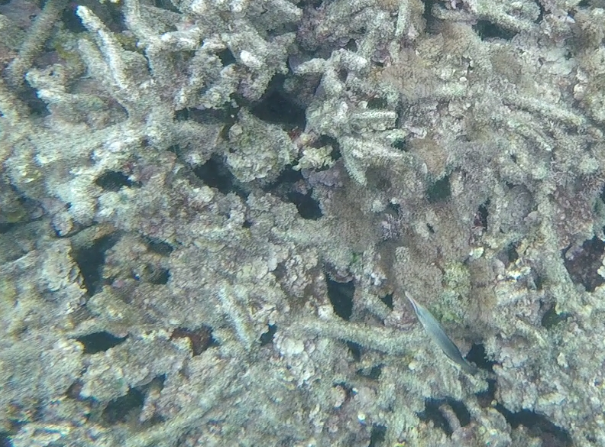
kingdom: Animalia
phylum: Chordata
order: Perciformes
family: Labridae
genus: Gomphosus
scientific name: Gomphosus caeruleus
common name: Bird wrasse
